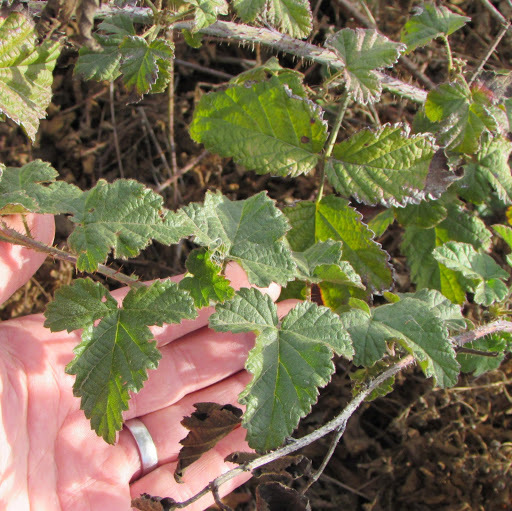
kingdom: Plantae
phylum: Tracheophyta
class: Magnoliopsida
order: Rosales
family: Rosaceae
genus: Rubus
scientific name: Rubus ursinus
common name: Pacific blackberry
